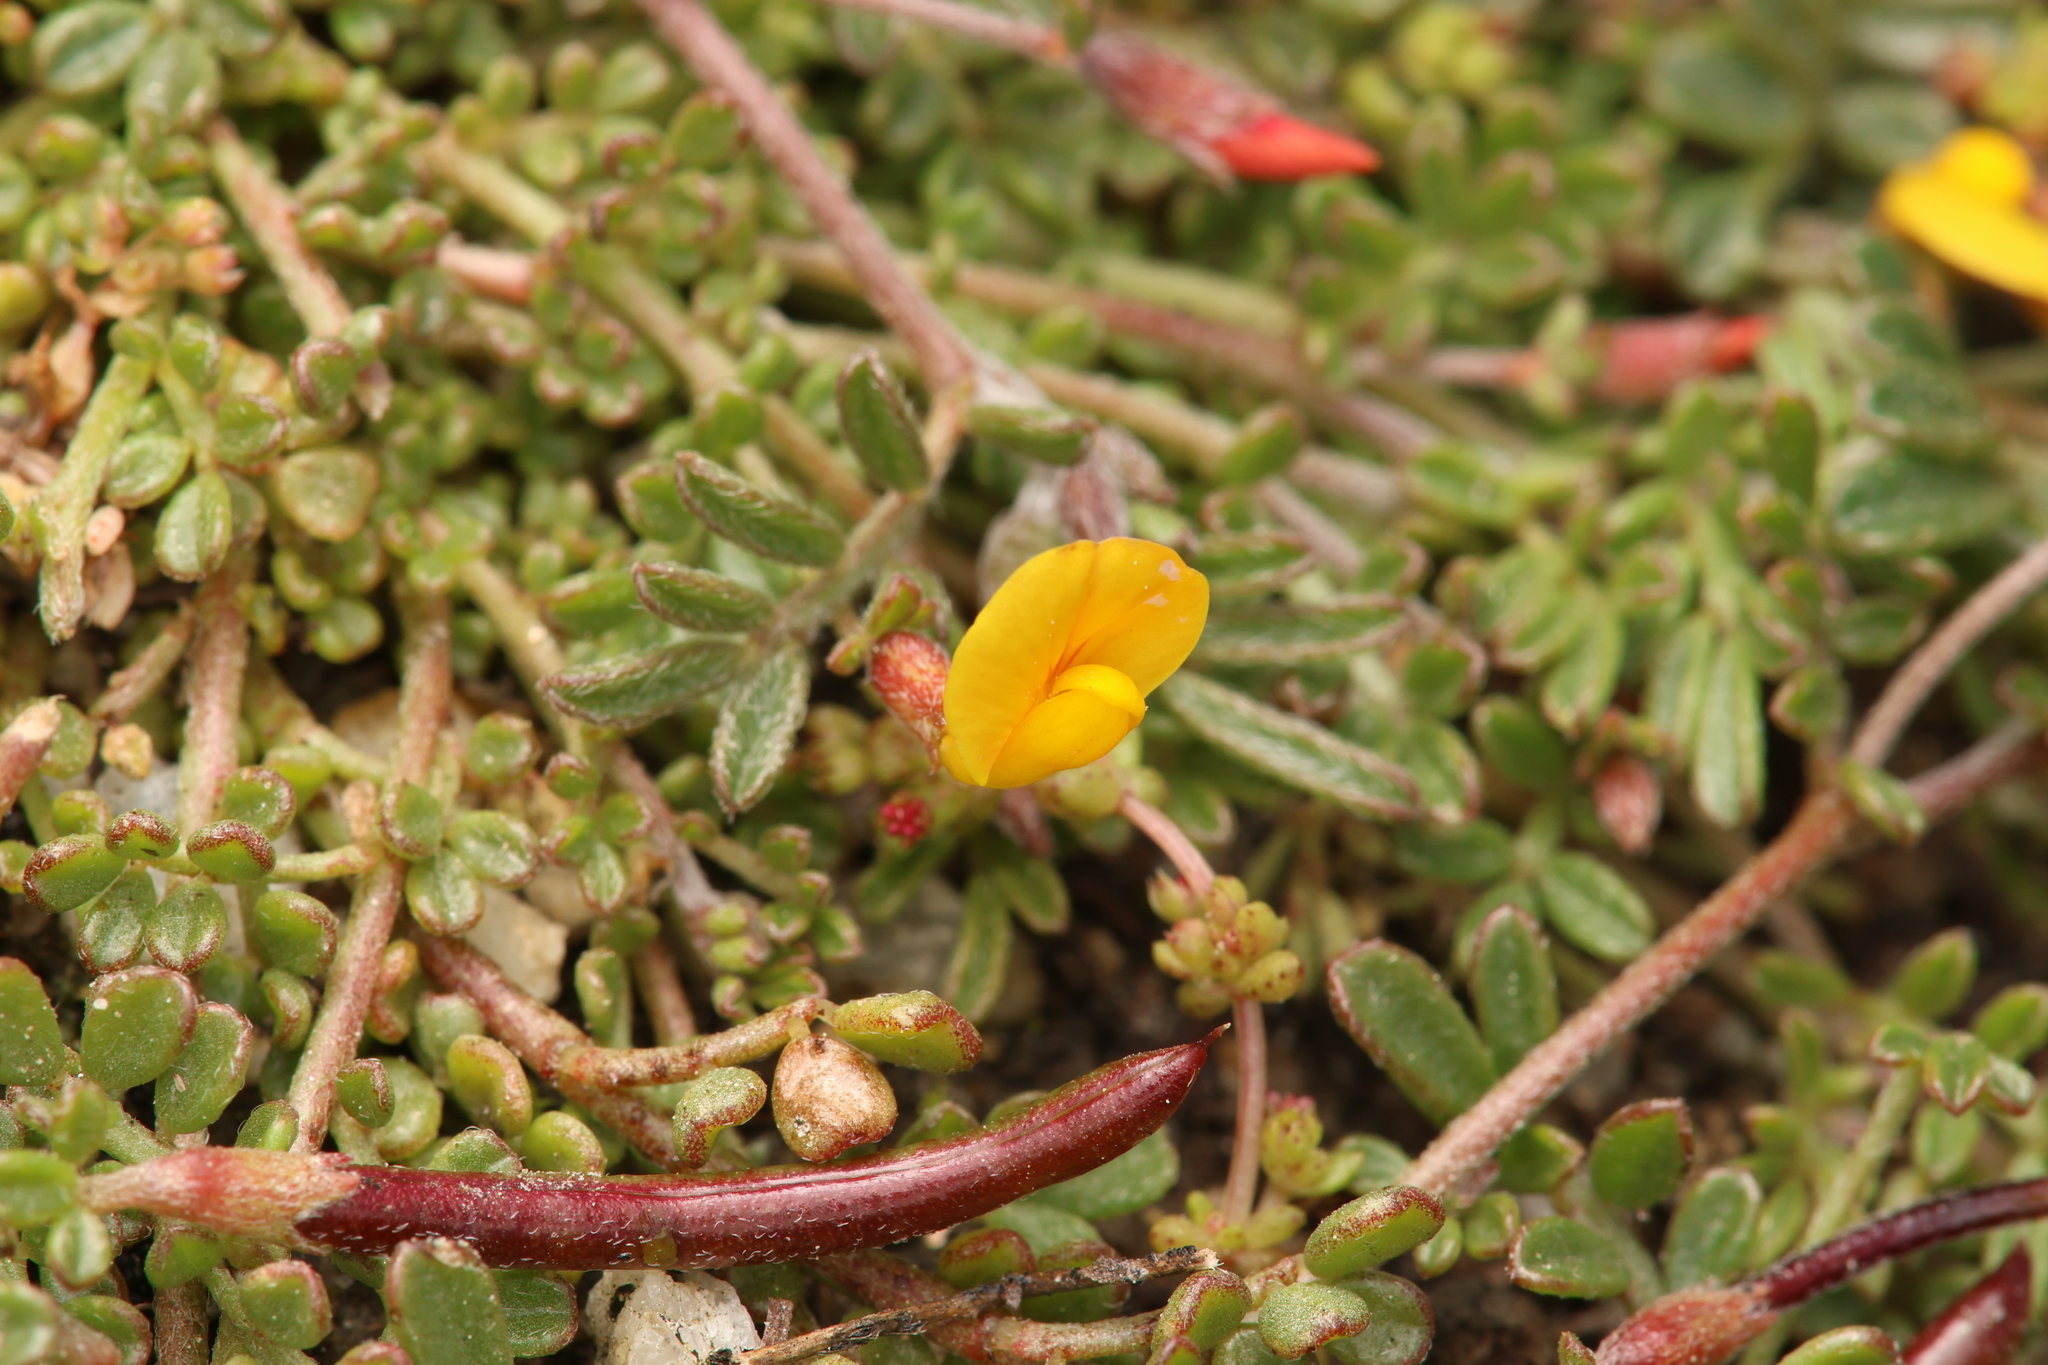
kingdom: Plantae
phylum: Tracheophyta
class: Magnoliopsida
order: Fabales
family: Fabaceae
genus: Acmispon
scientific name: Acmispon strigosus
